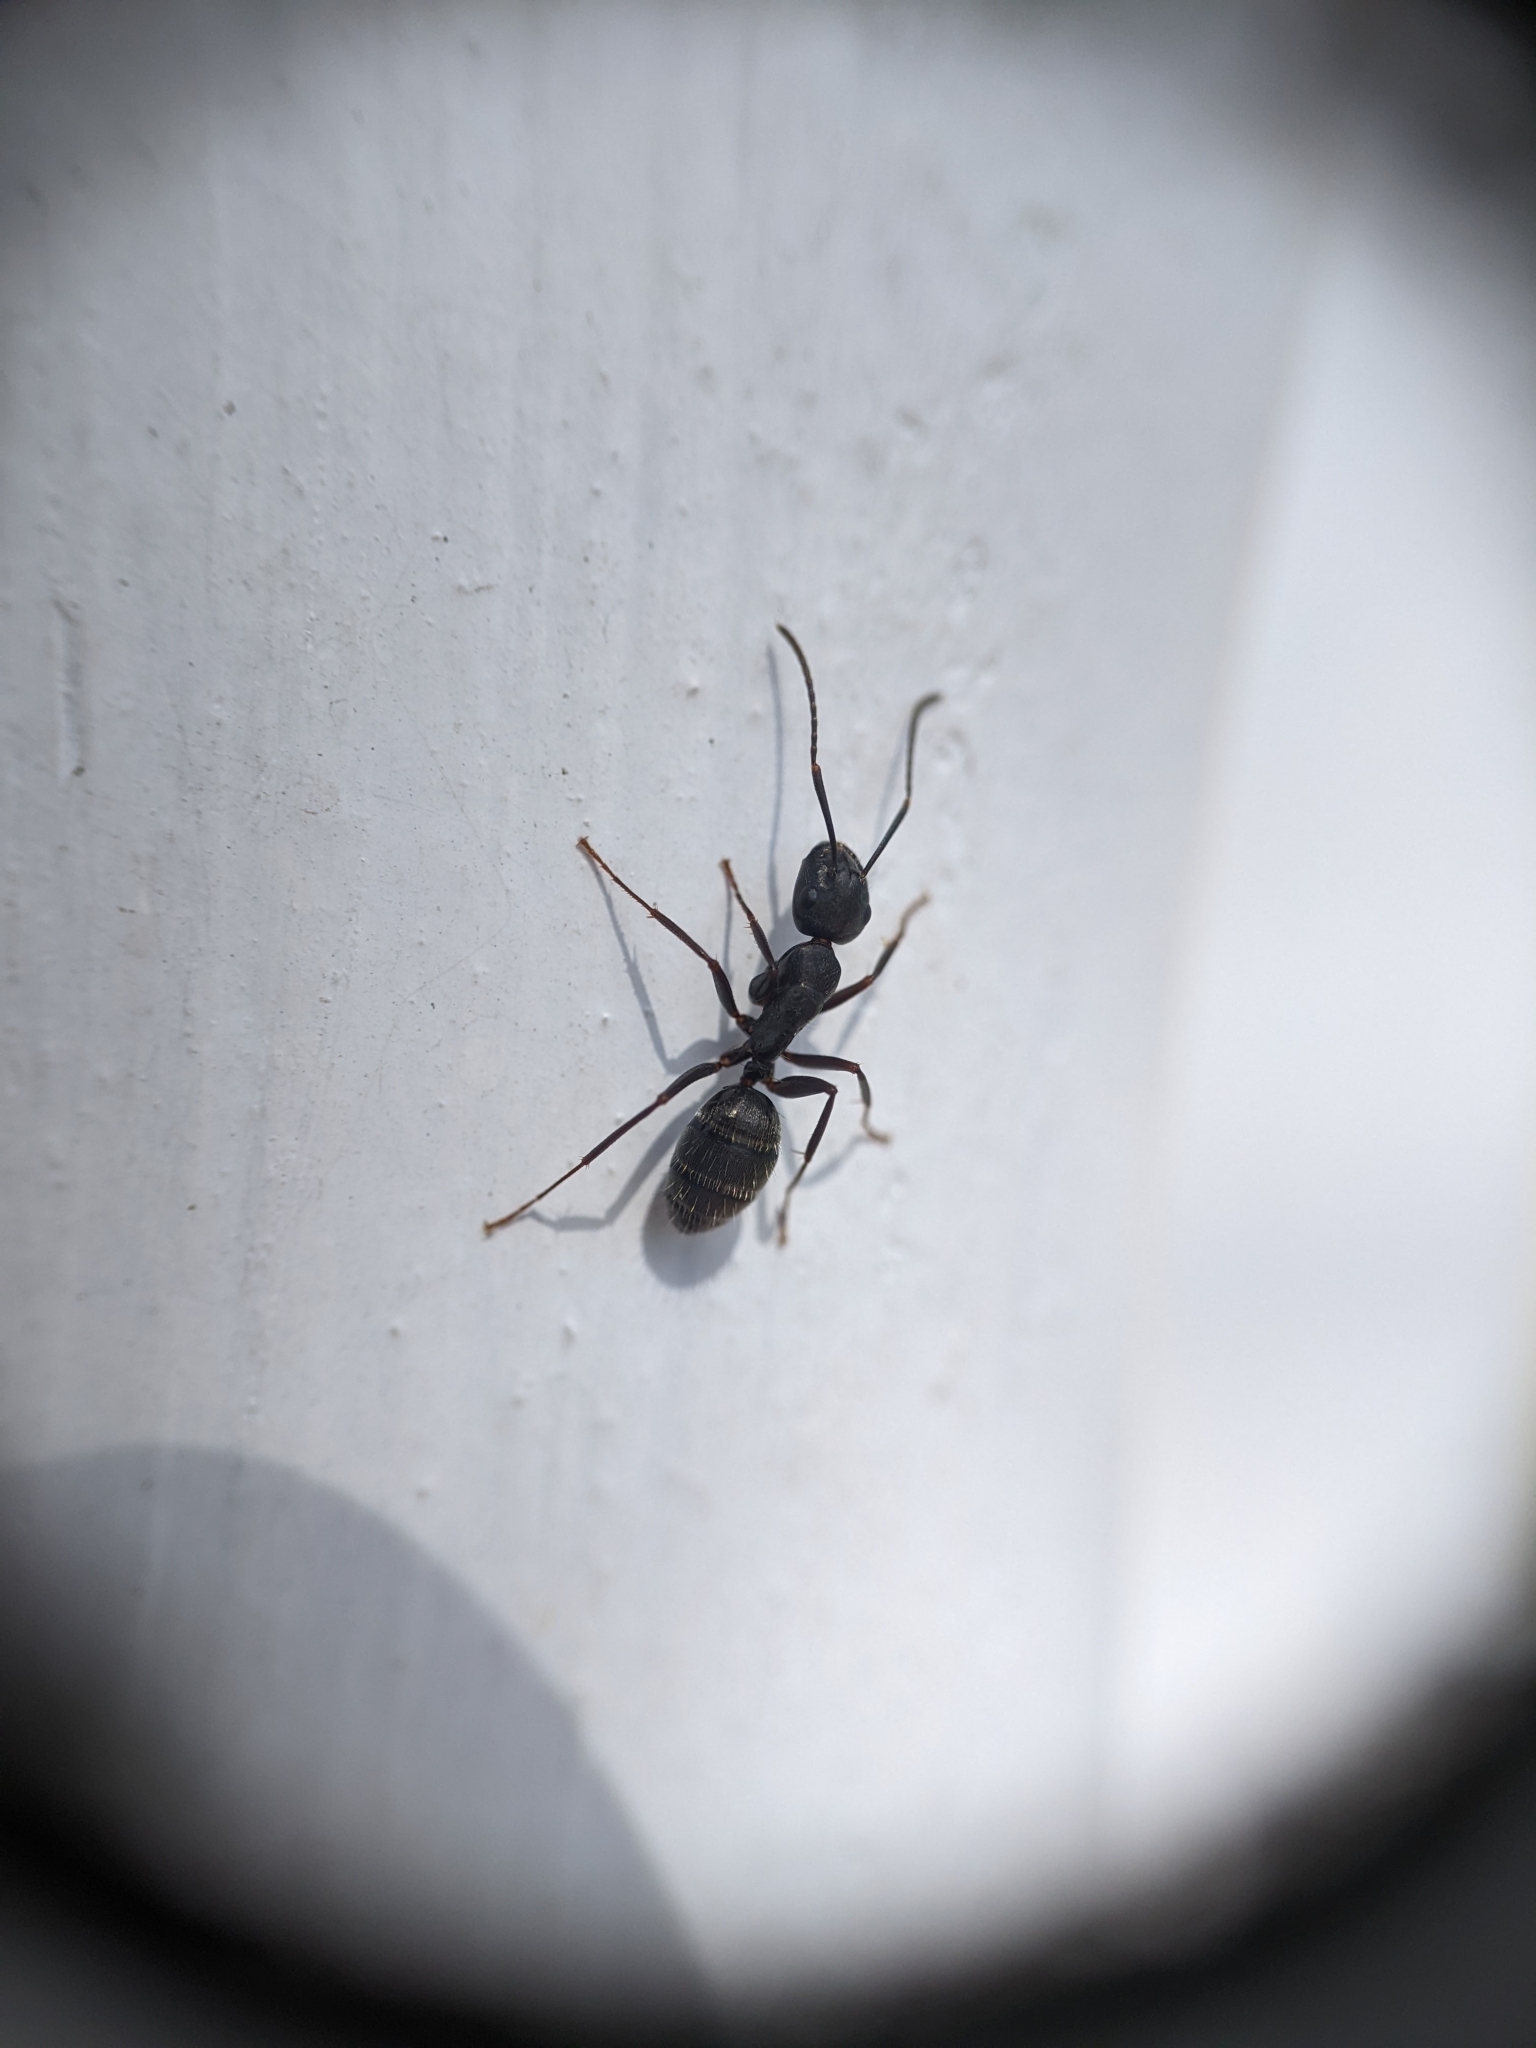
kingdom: Animalia
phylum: Arthropoda
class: Insecta
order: Hymenoptera
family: Formicidae
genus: Camponotus
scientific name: Camponotus pennsylvanicus
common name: Black carpenter ant
